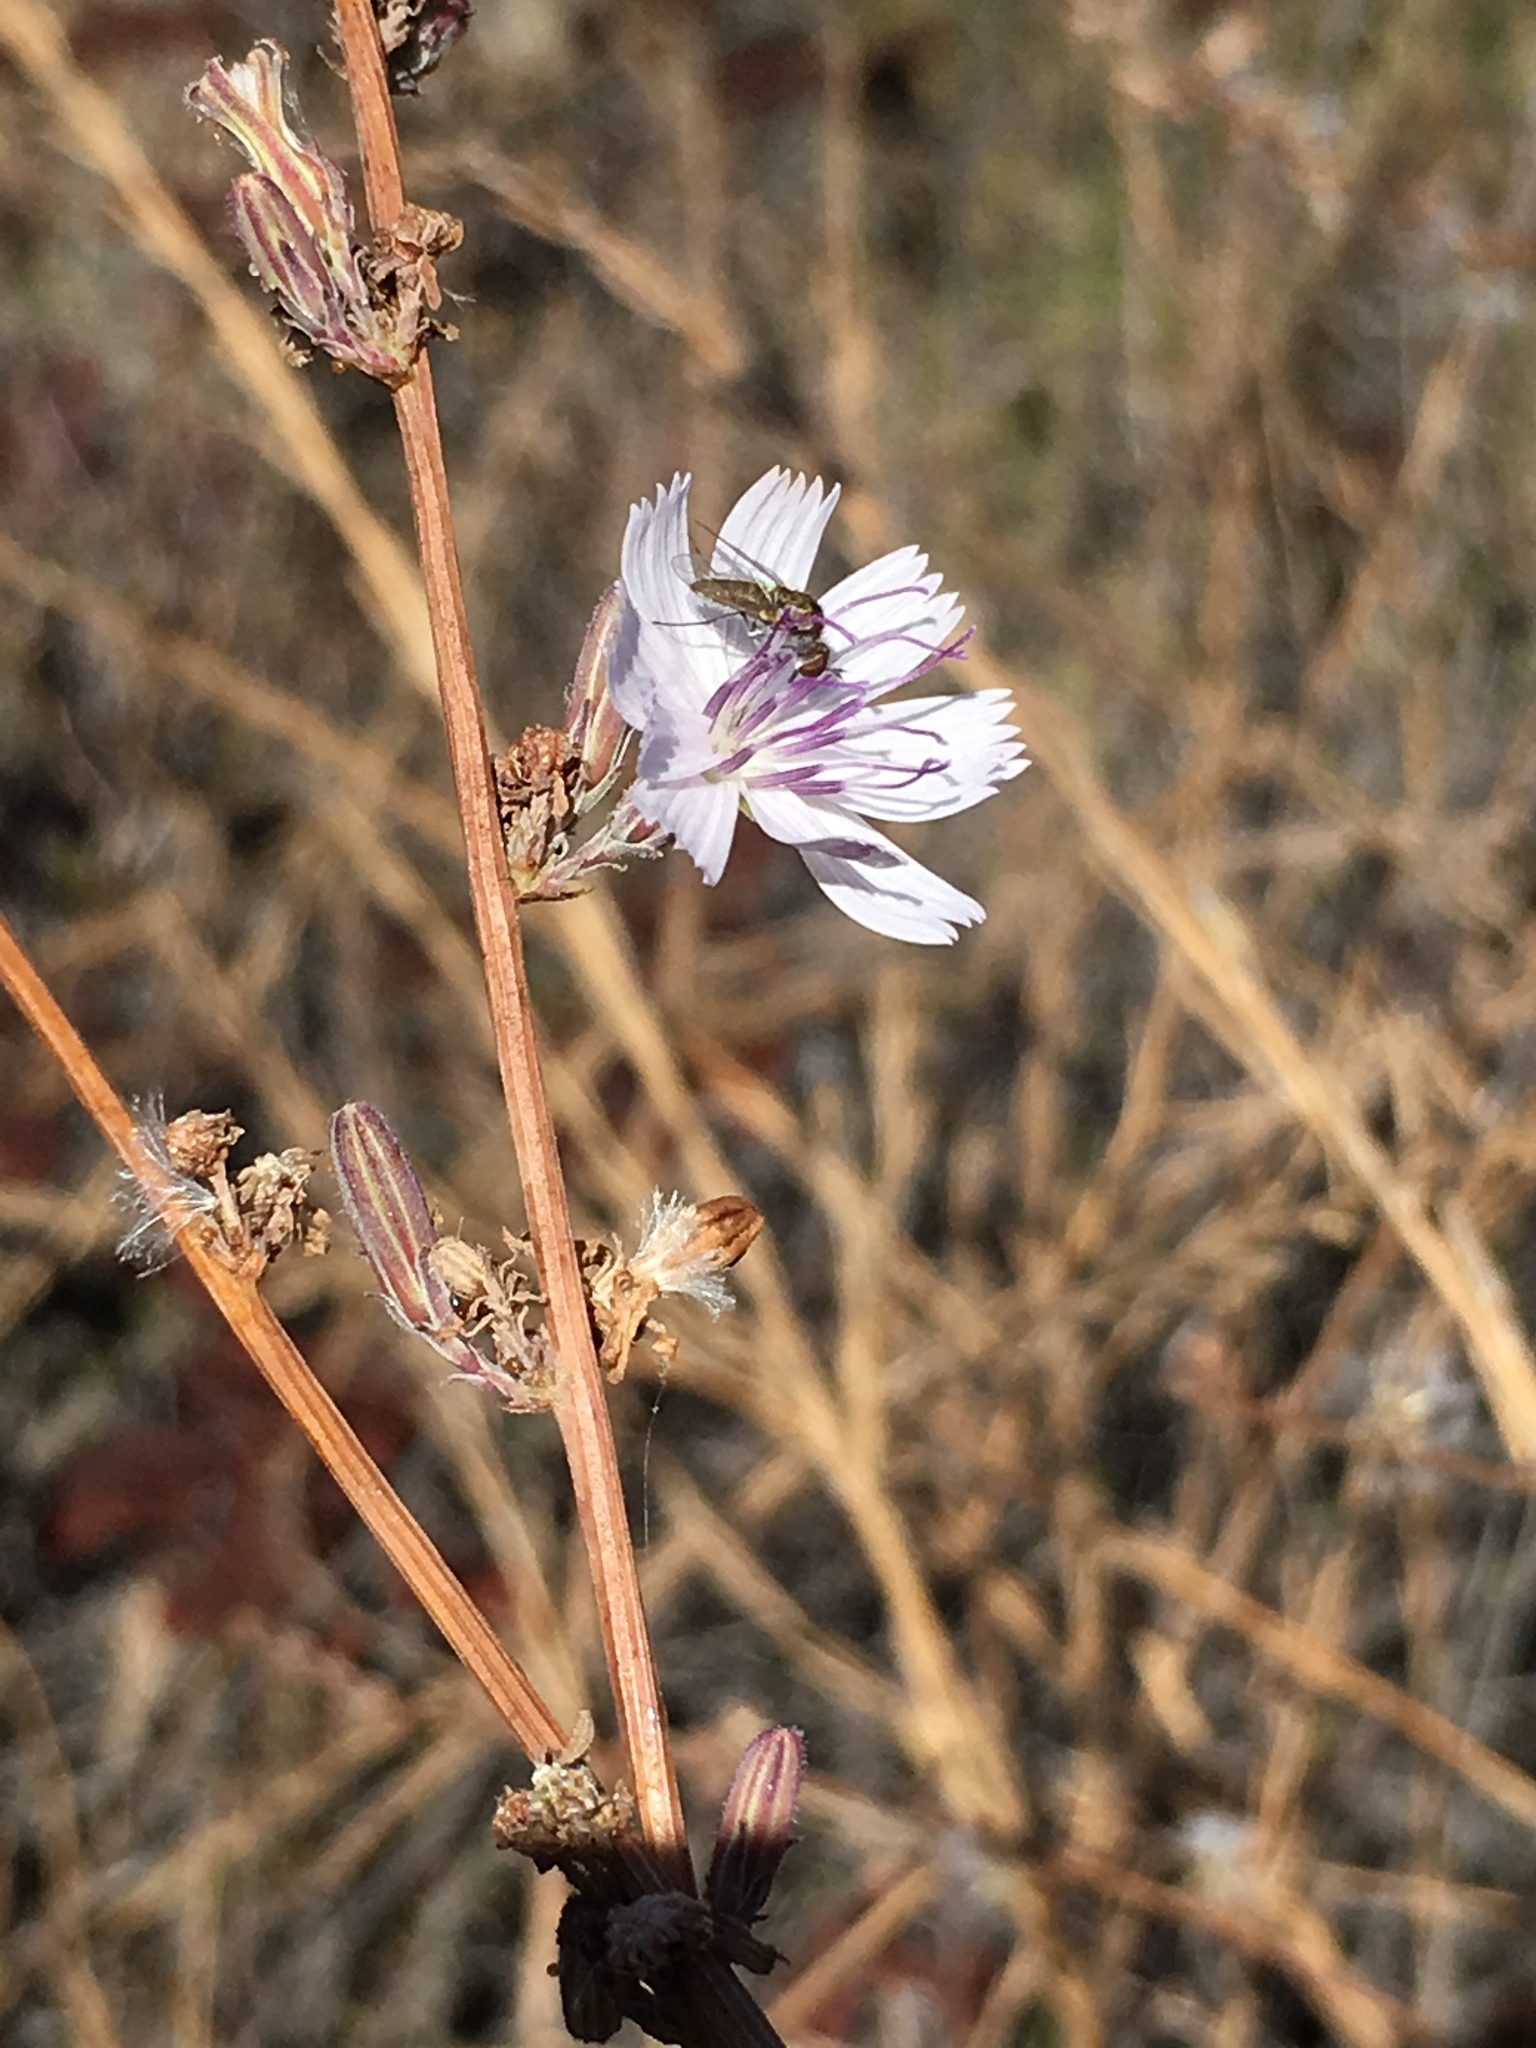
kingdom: Plantae
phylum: Tracheophyta
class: Magnoliopsida
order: Asterales
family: Asteraceae
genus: Stephanomeria
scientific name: Stephanomeria diegensis
